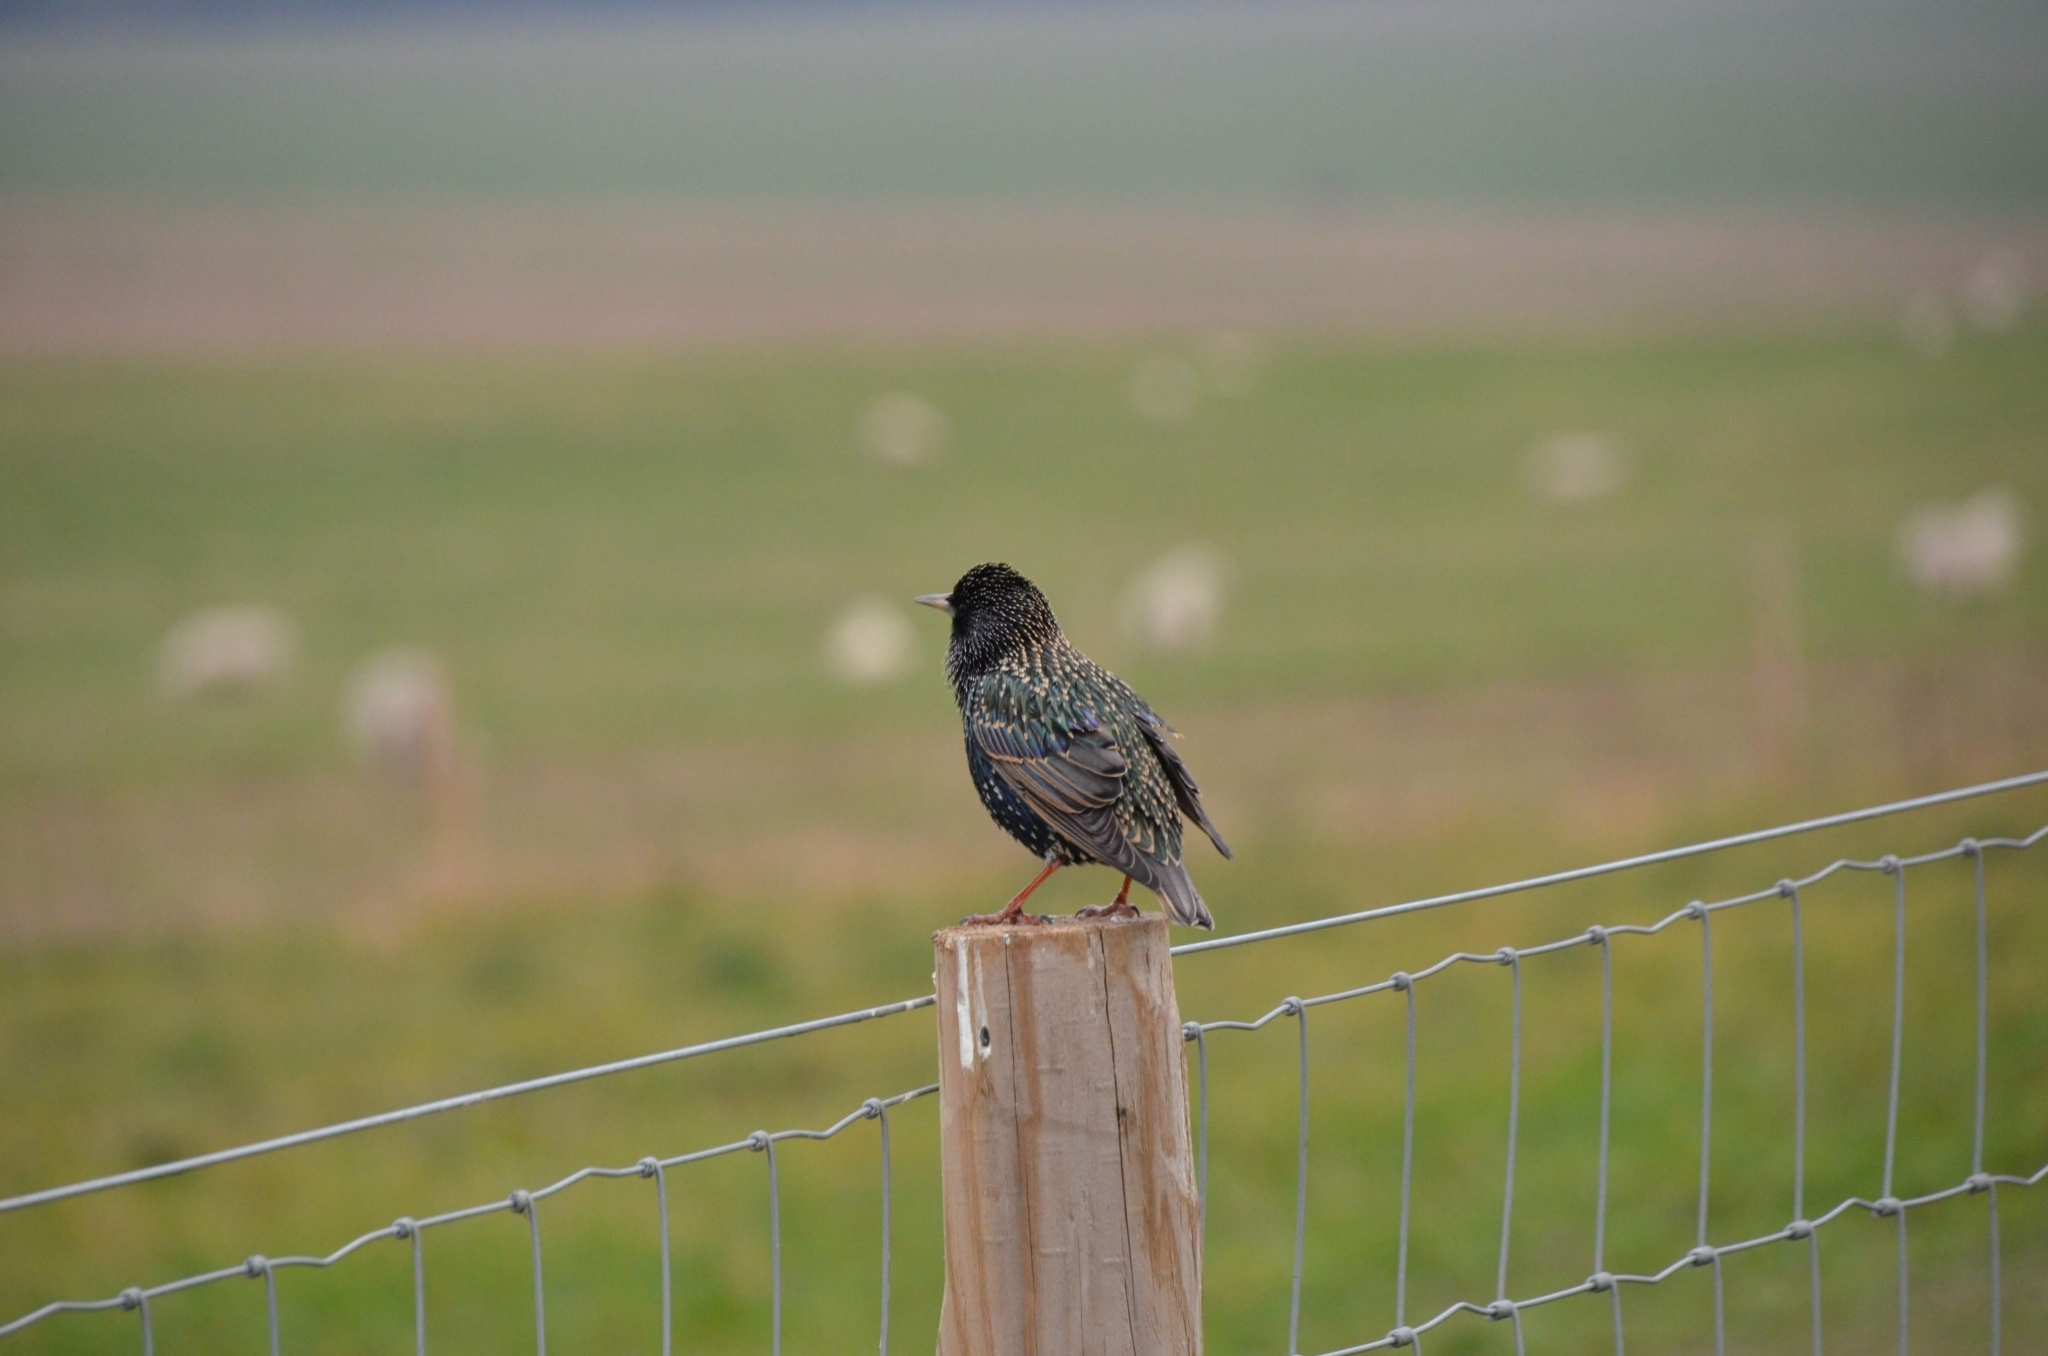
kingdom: Animalia
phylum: Chordata
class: Aves
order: Passeriformes
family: Sturnidae
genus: Sturnus
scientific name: Sturnus vulgaris
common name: Common starling
